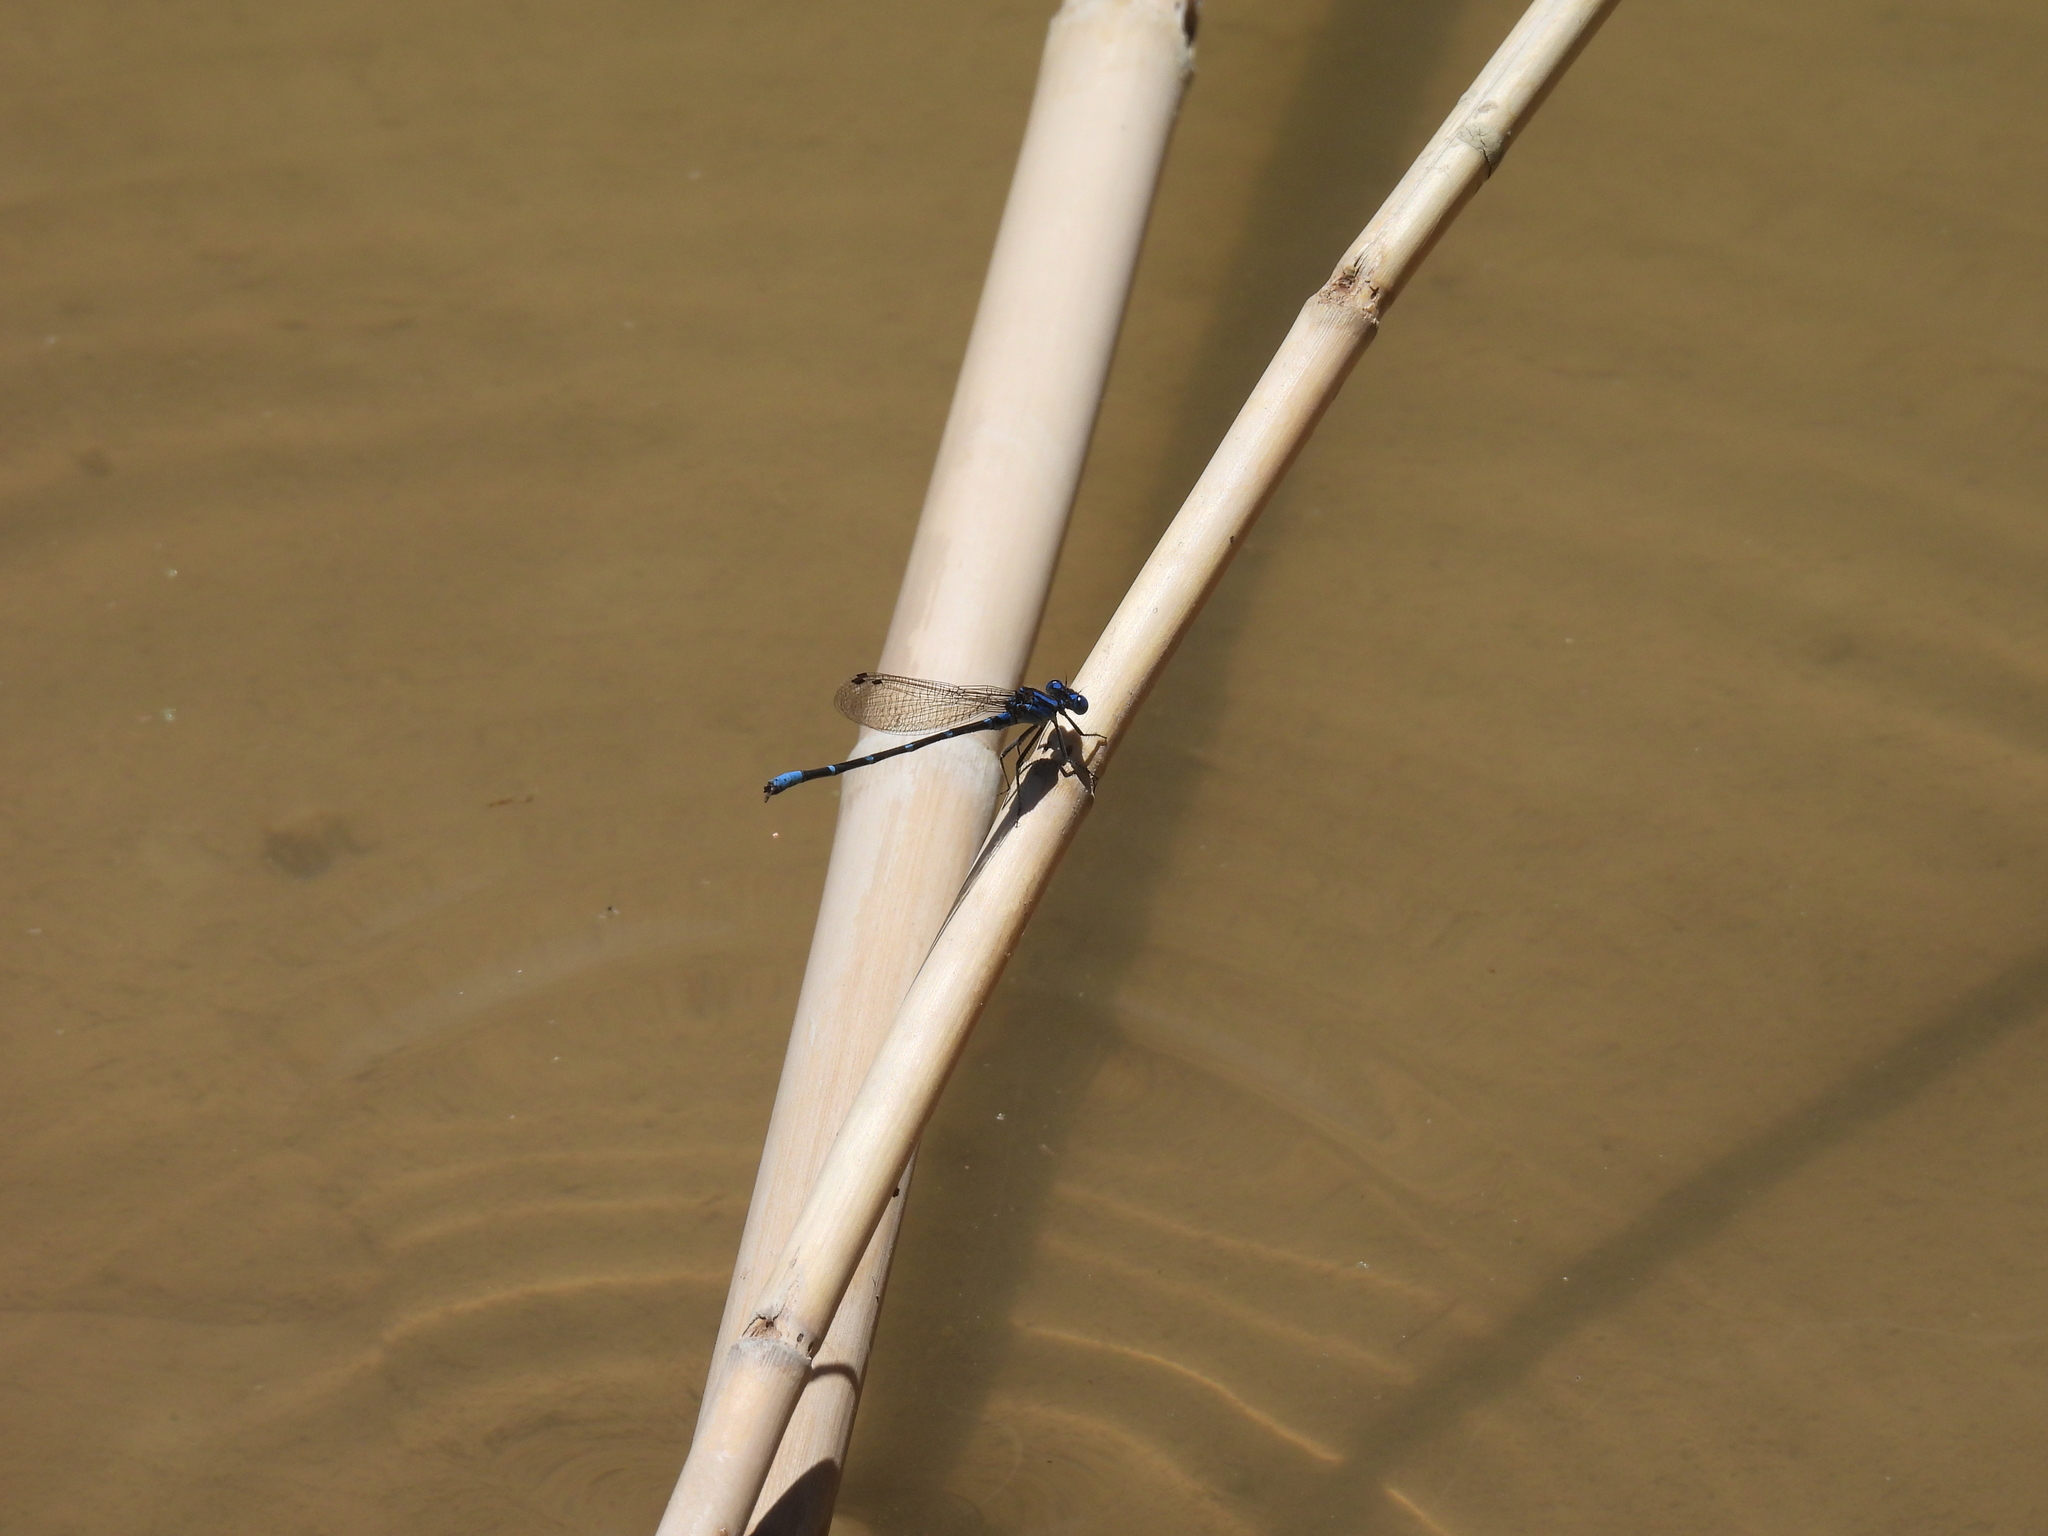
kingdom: Animalia
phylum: Arthropoda
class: Insecta
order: Odonata
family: Coenagrionidae
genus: Argia
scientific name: Argia sedula
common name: Blue-ringed dancer
